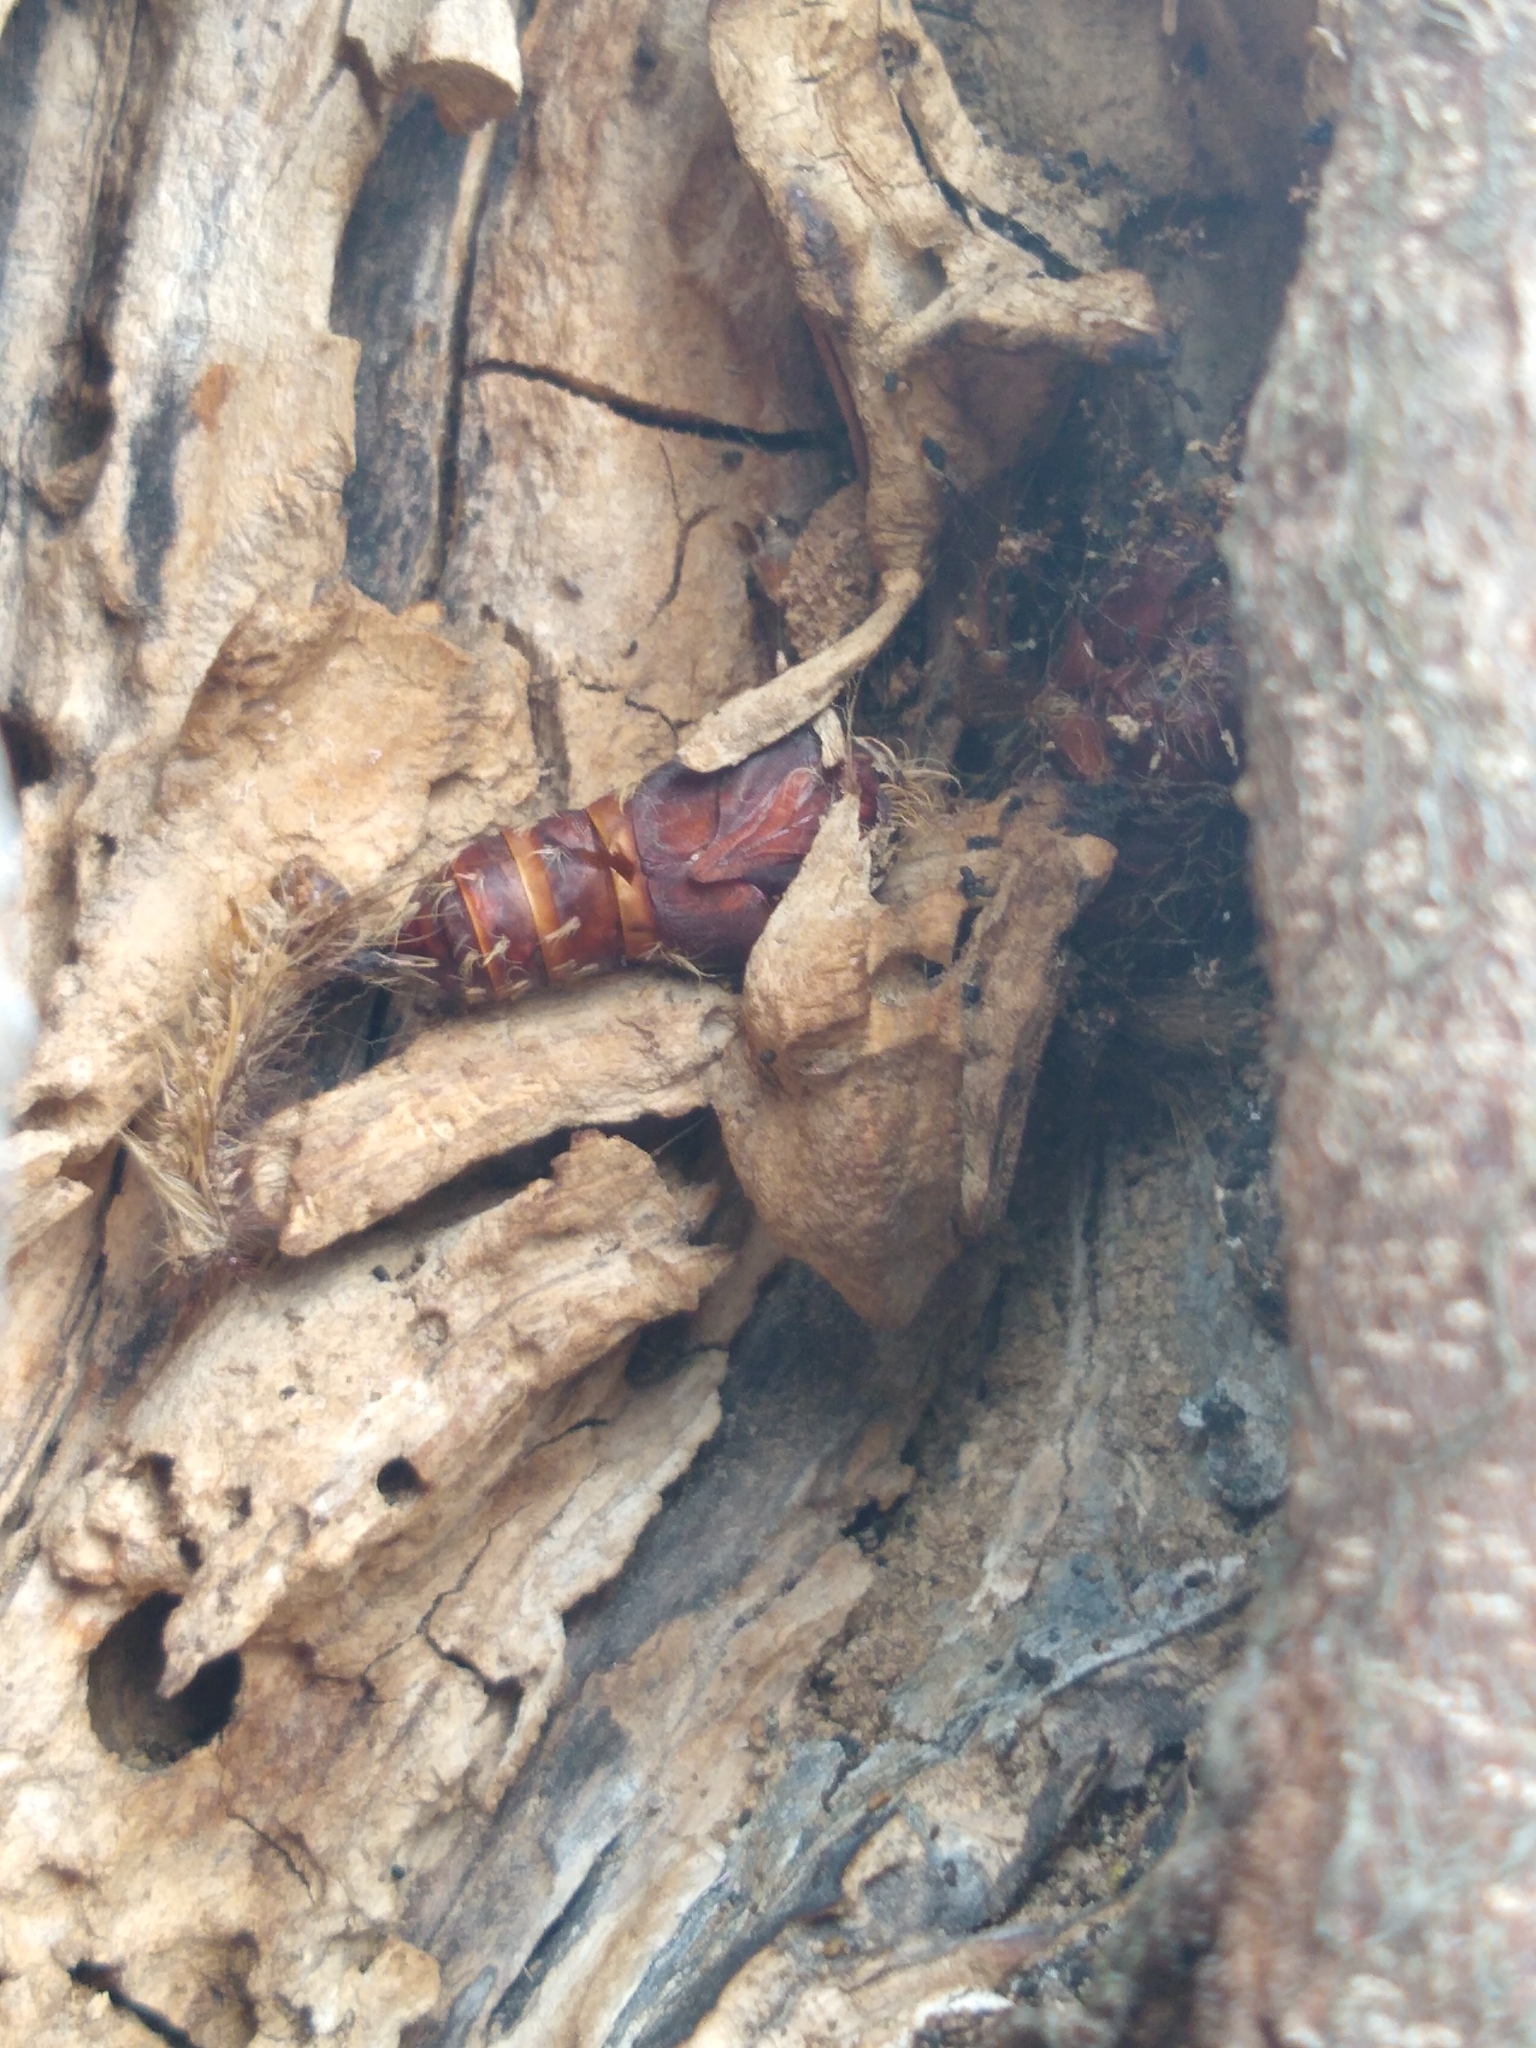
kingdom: Animalia
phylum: Arthropoda
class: Insecta
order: Lepidoptera
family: Erebidae
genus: Lymantria
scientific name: Lymantria dispar
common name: Gypsy moth
